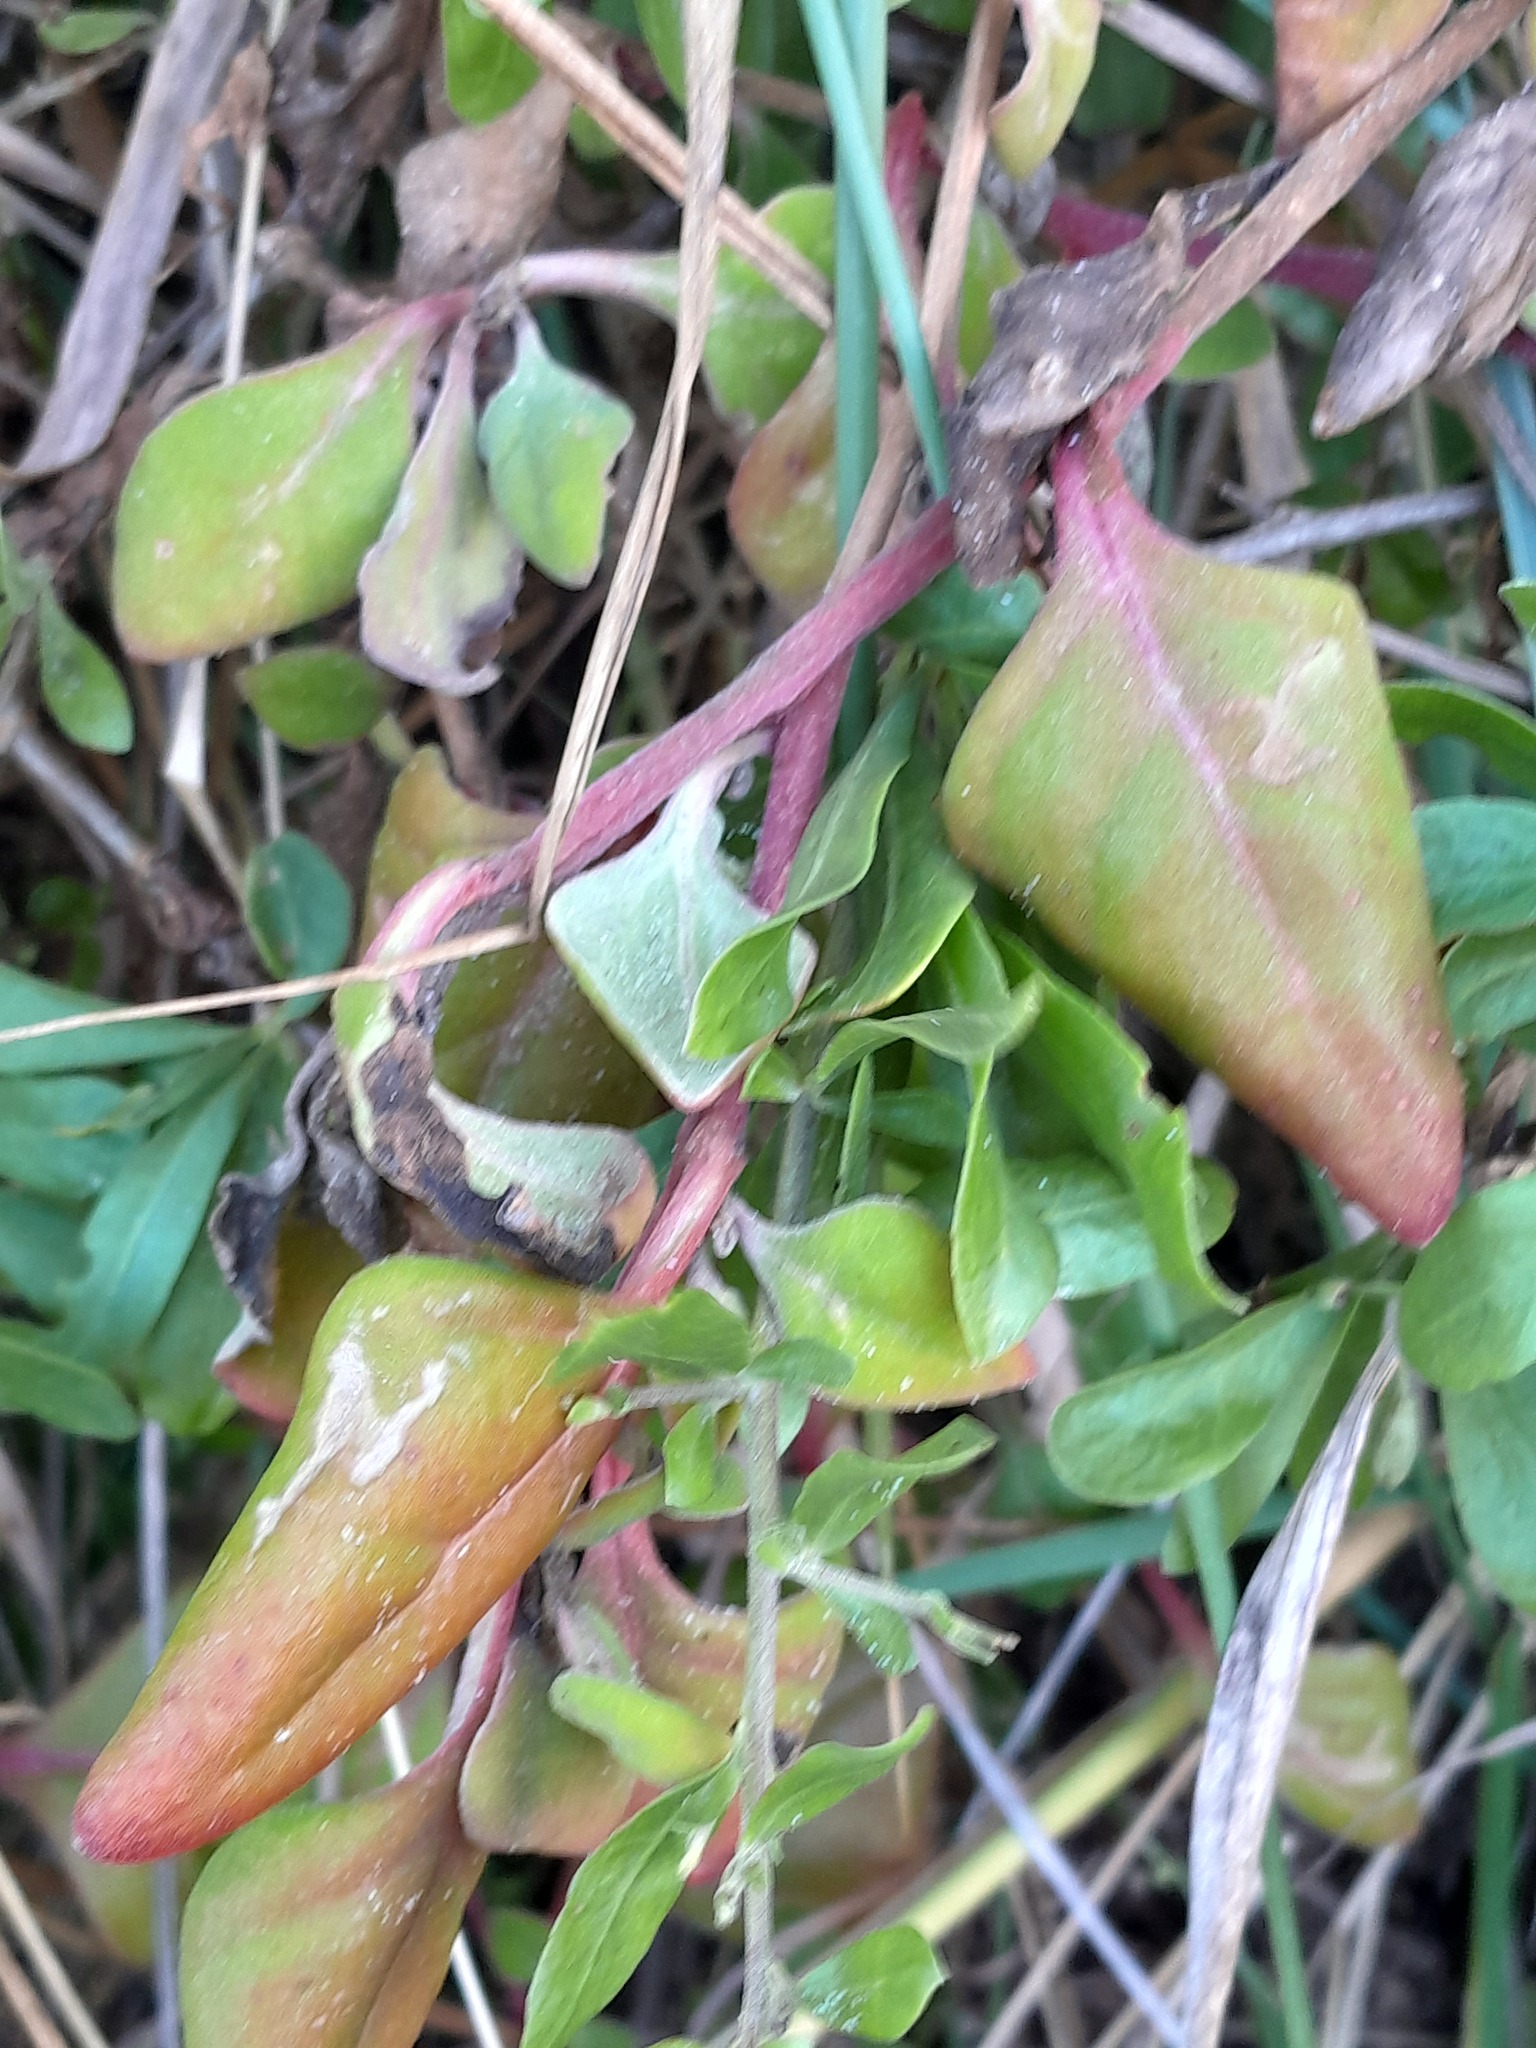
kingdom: Plantae
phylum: Tracheophyta
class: Magnoliopsida
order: Caryophyllales
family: Aizoaceae
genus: Tetragonia
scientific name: Tetragonia implexicoma
